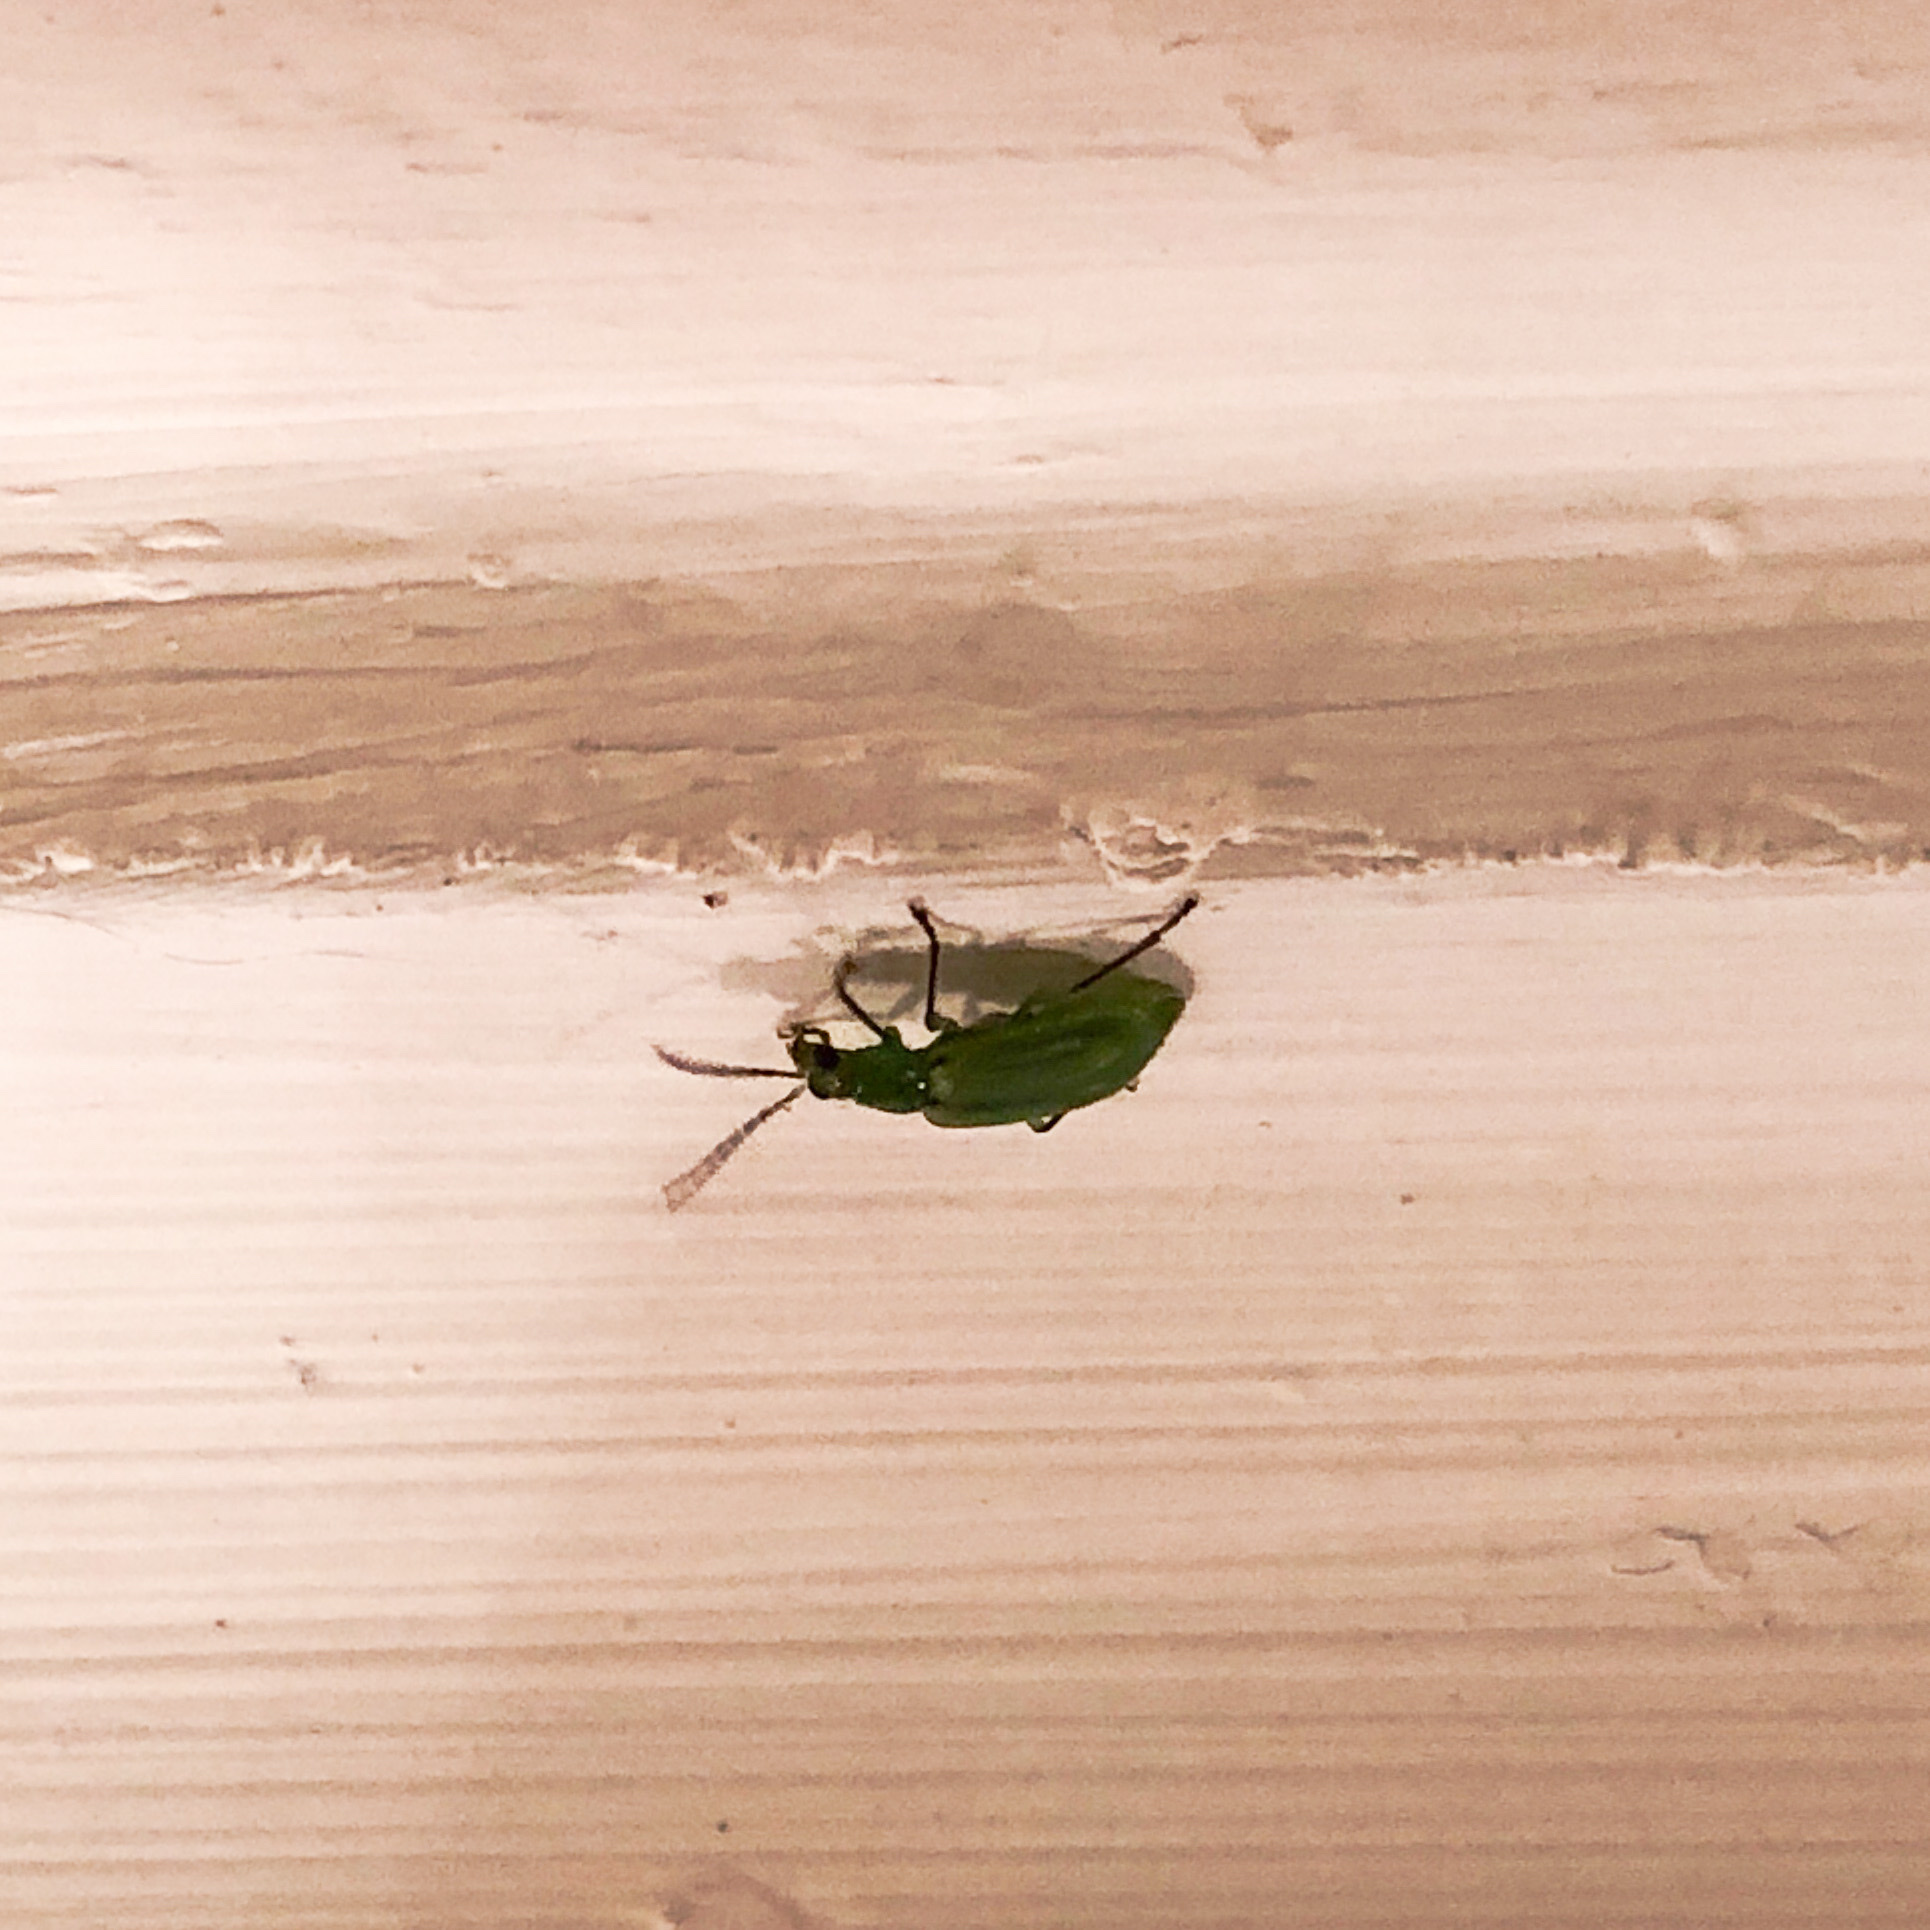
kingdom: Animalia
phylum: Arthropoda
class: Insecta
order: Coleoptera
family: Chrysomelidae
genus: Diabrotica
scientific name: Diabrotica barberi
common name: Northern corn rootworm
